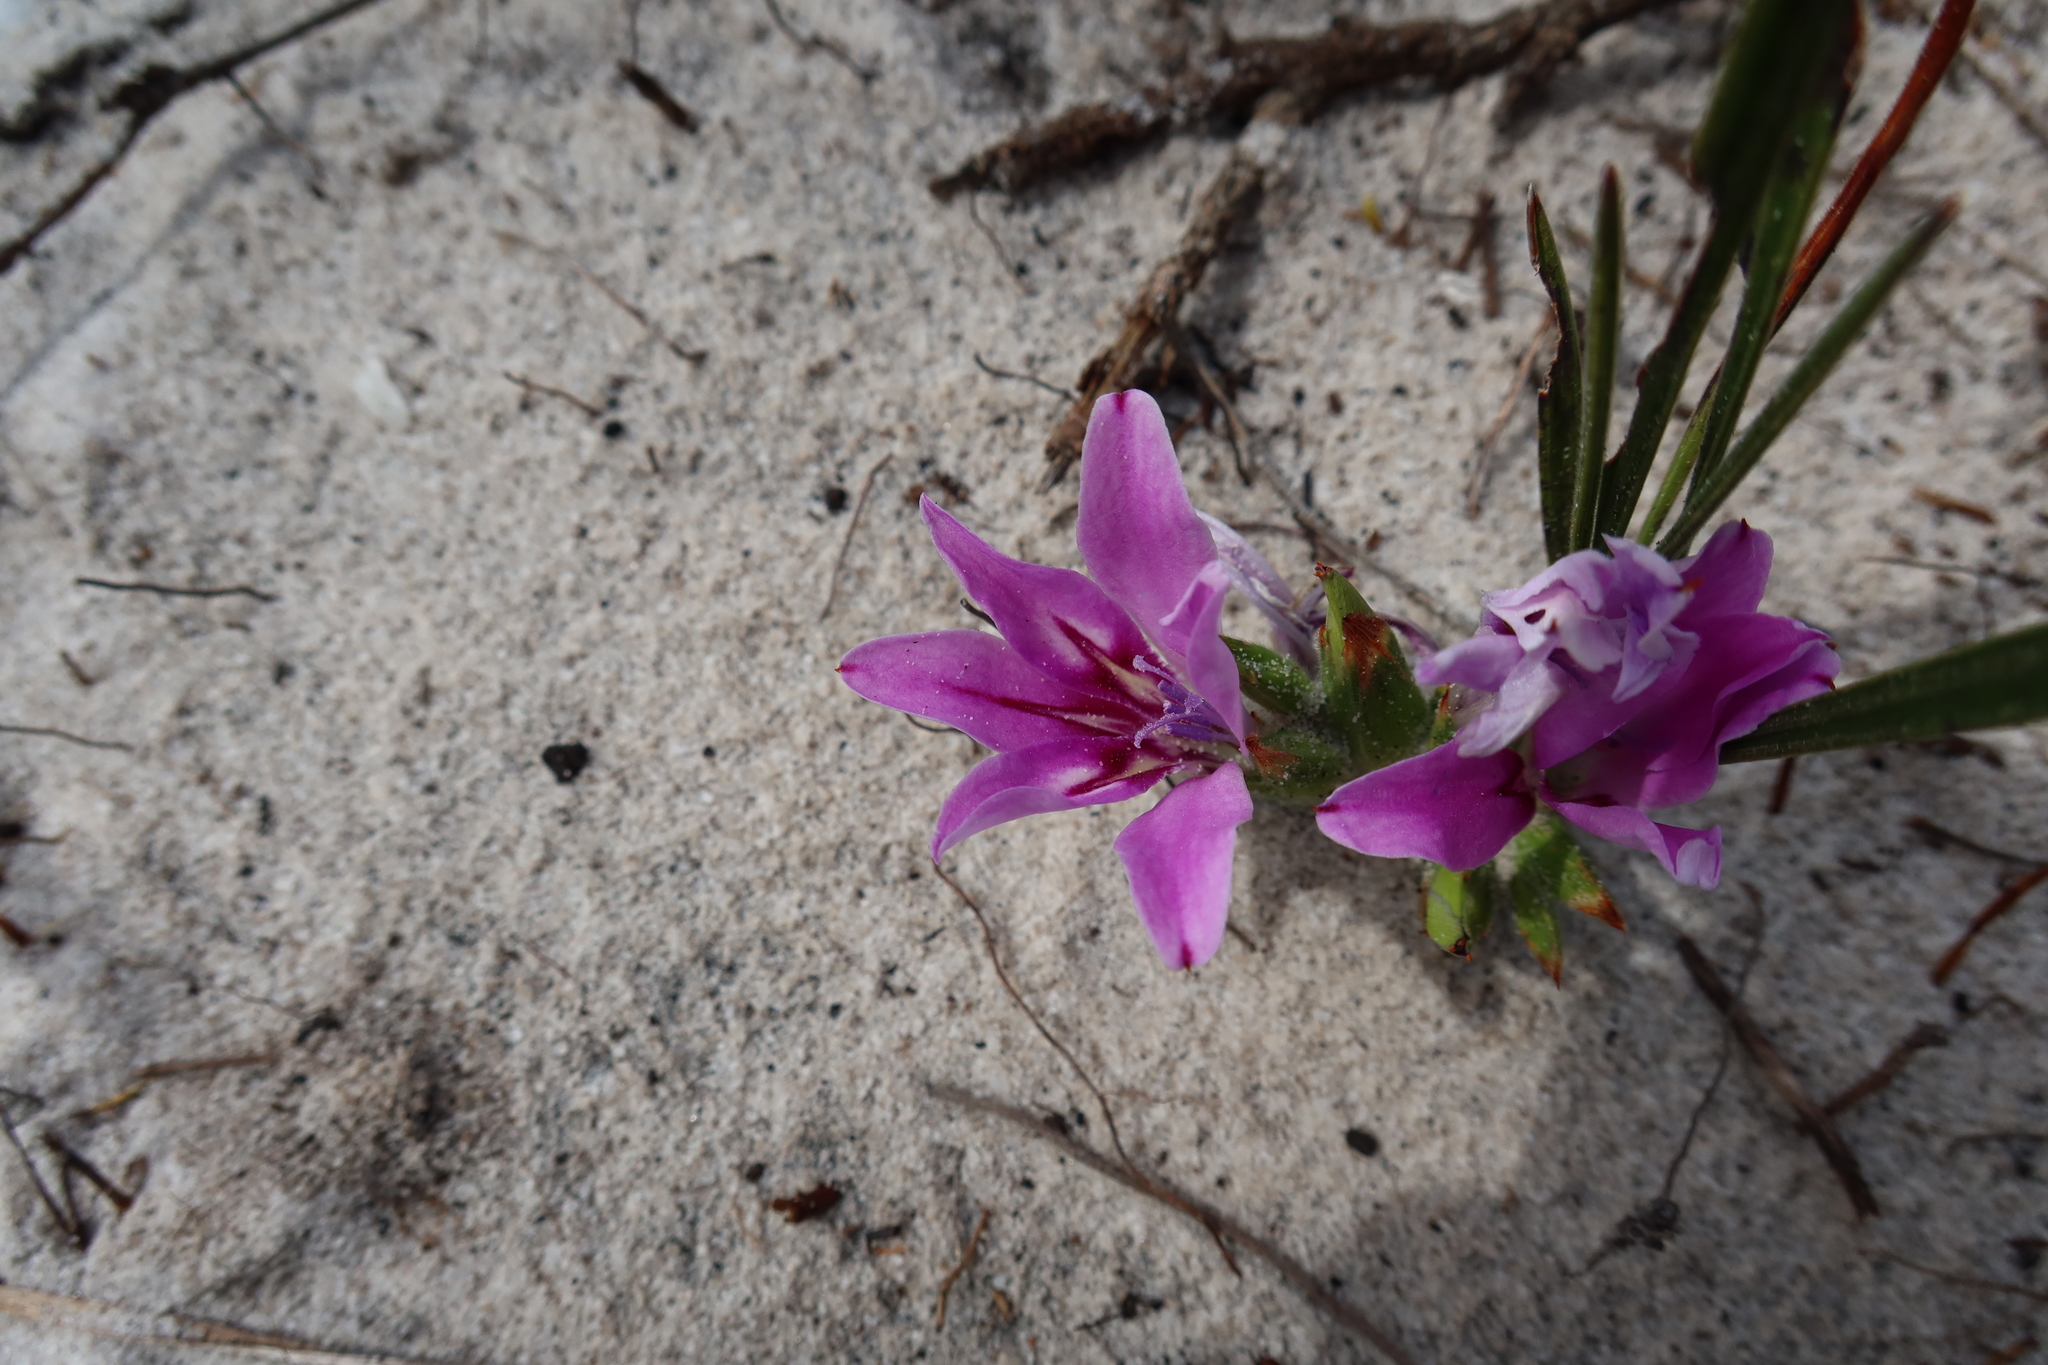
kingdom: Plantae
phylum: Tracheophyta
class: Liliopsida
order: Asparagales
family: Iridaceae
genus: Babiana
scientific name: Babiana ambigua
